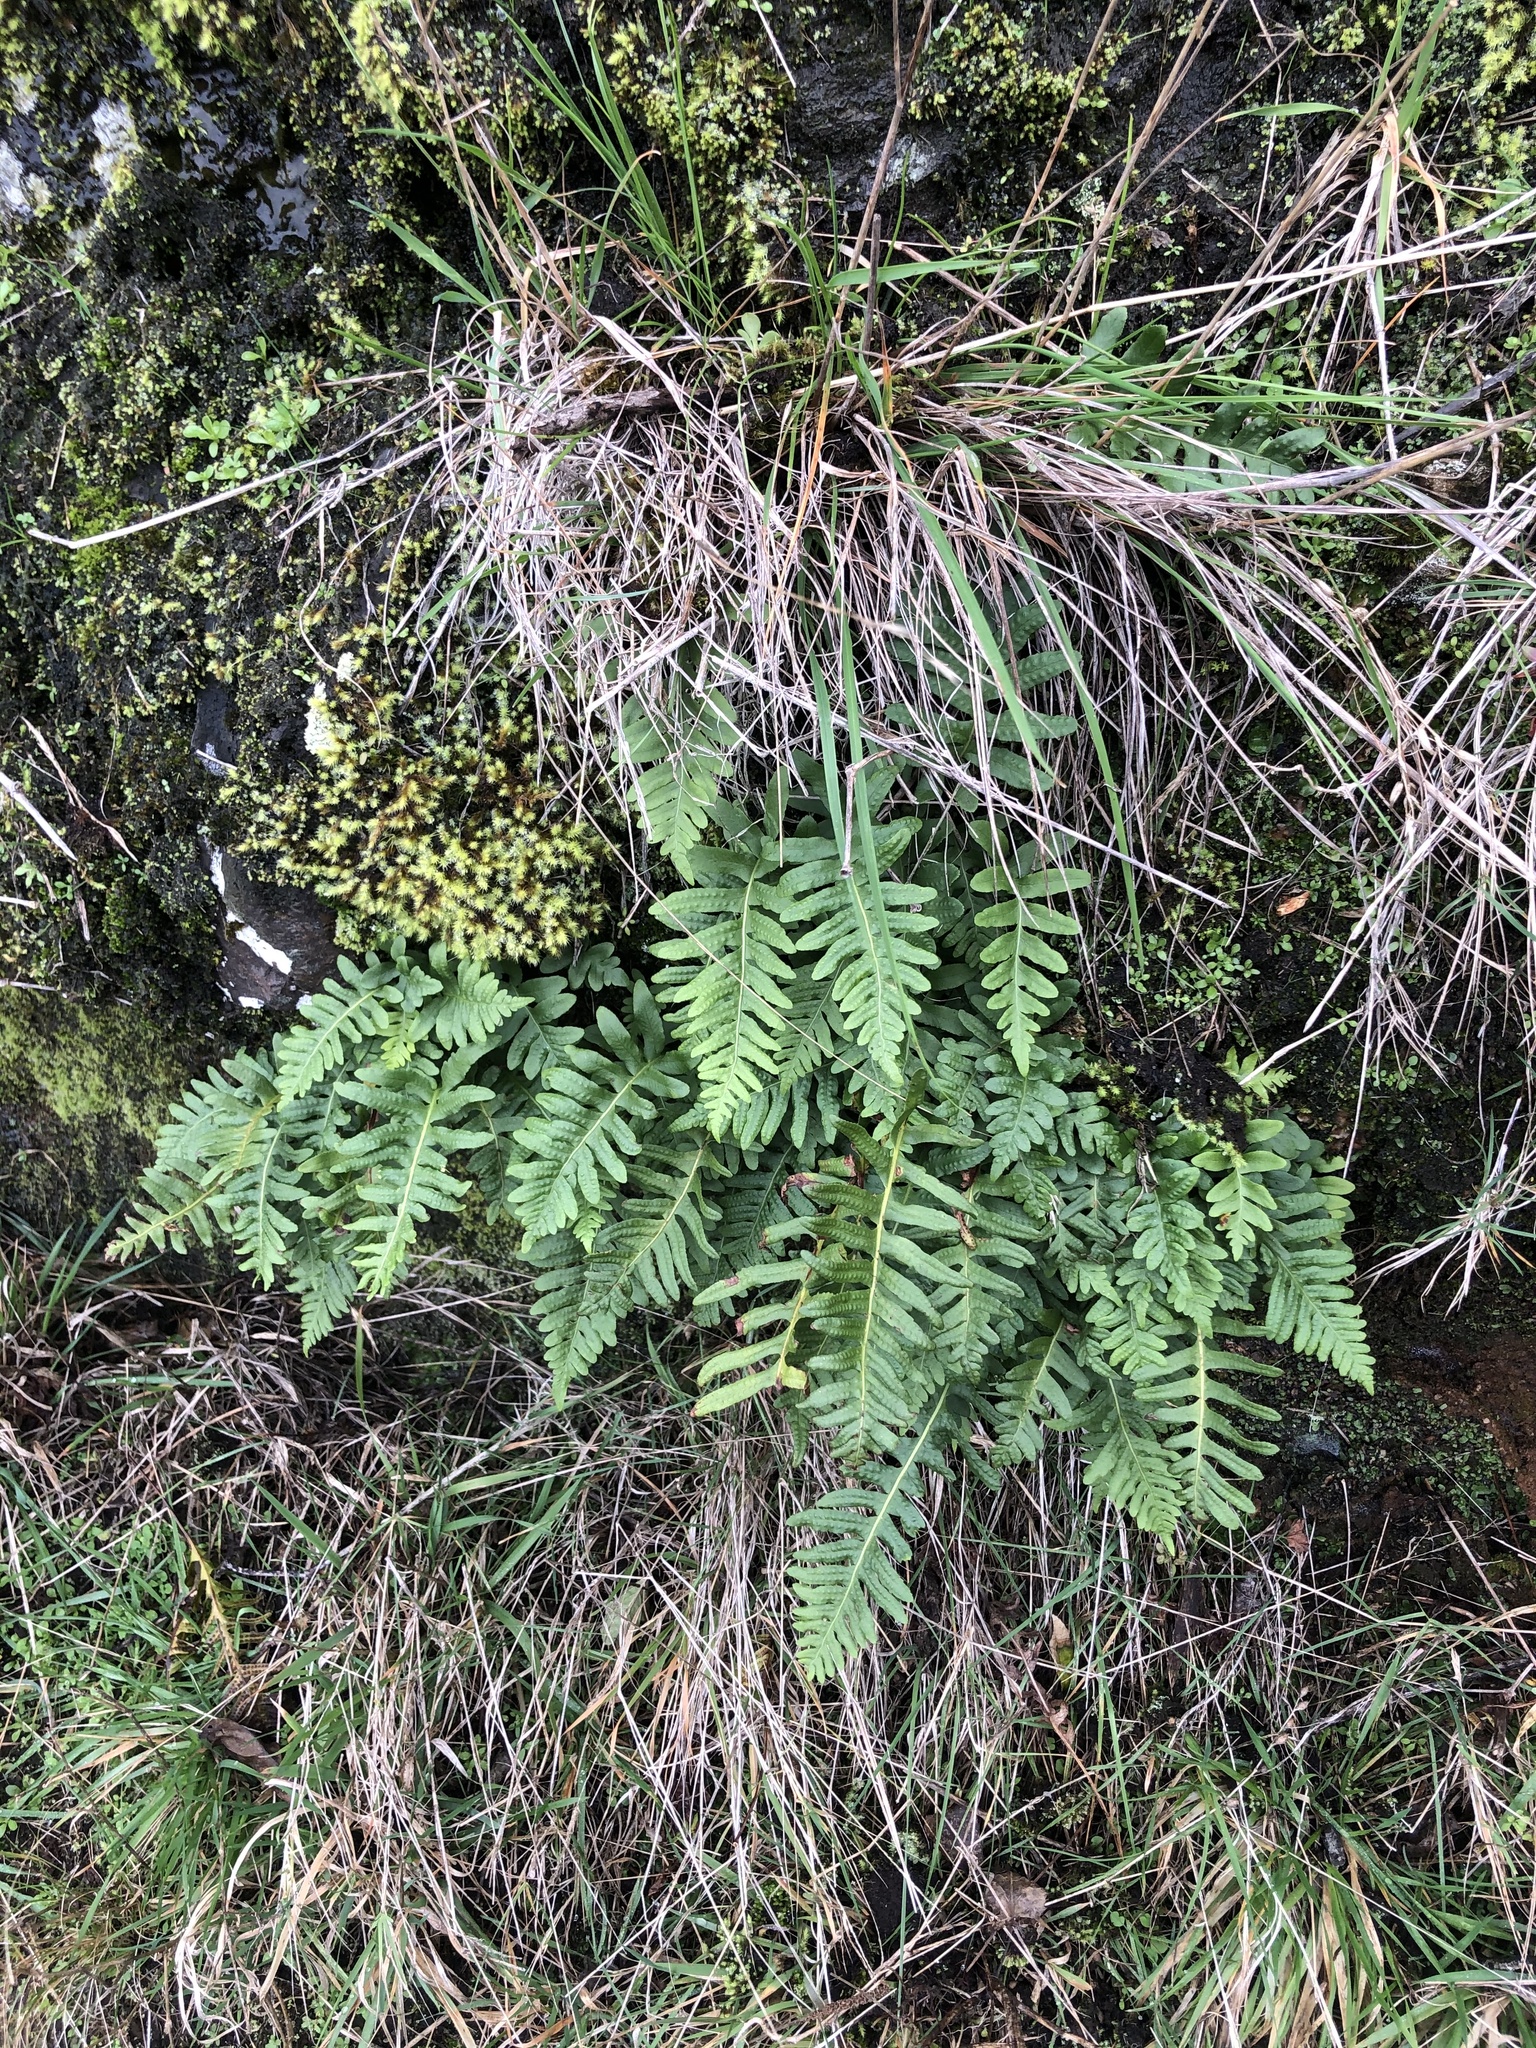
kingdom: Plantae
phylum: Tracheophyta
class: Polypodiopsida
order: Polypodiales
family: Polypodiaceae
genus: Polypodium
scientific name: Polypodium vulgare
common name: Common polypody
